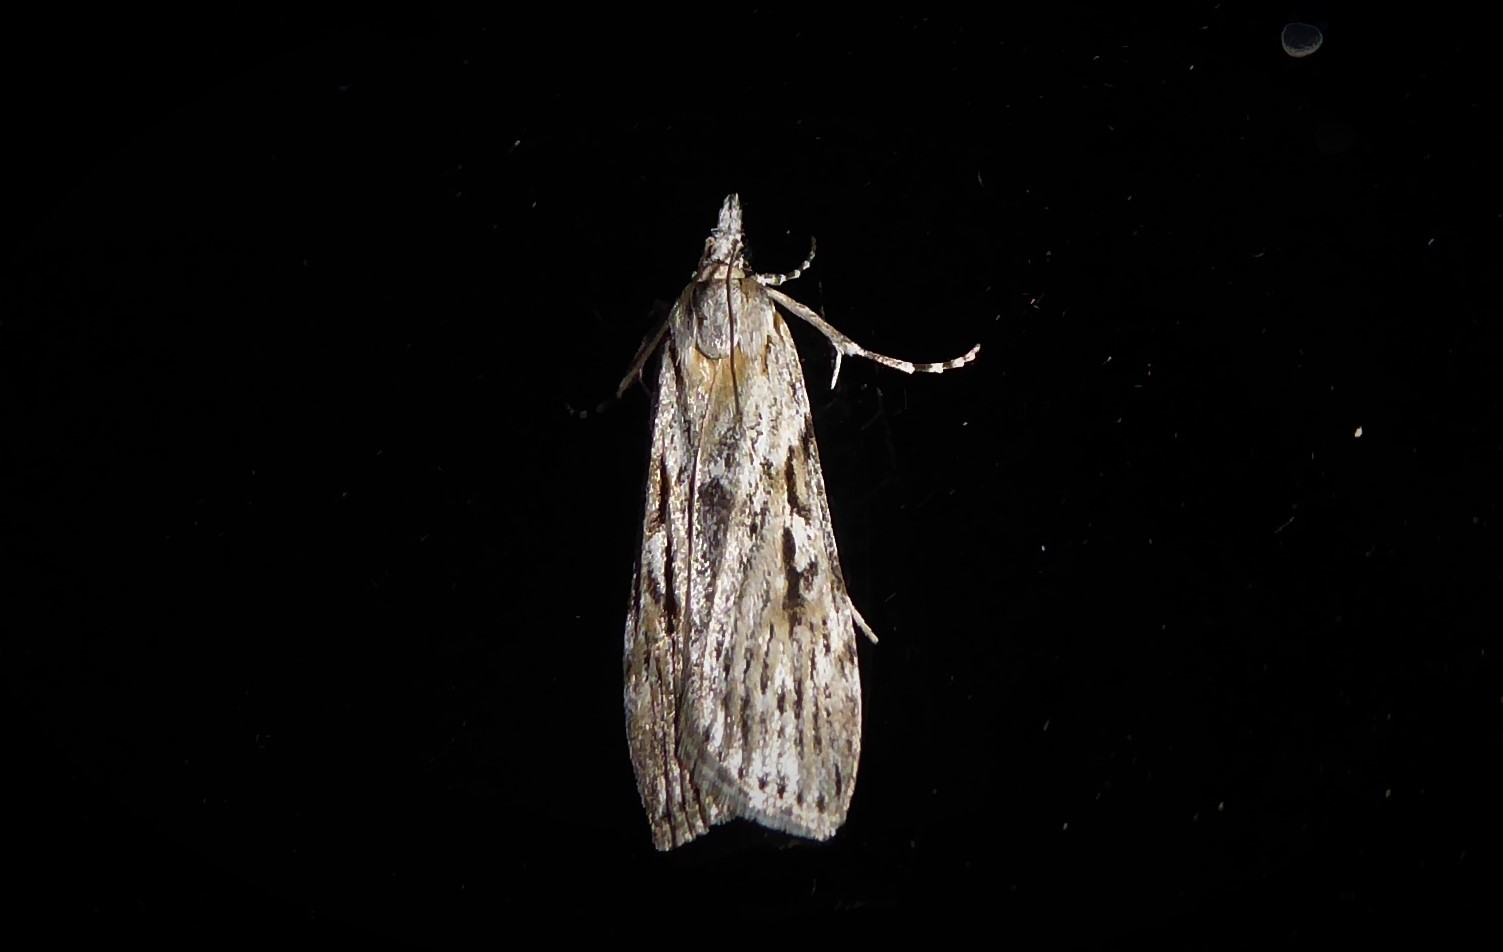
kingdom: Animalia
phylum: Arthropoda
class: Insecta
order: Lepidoptera
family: Crambidae
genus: Scoparia
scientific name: Scoparia halopis
